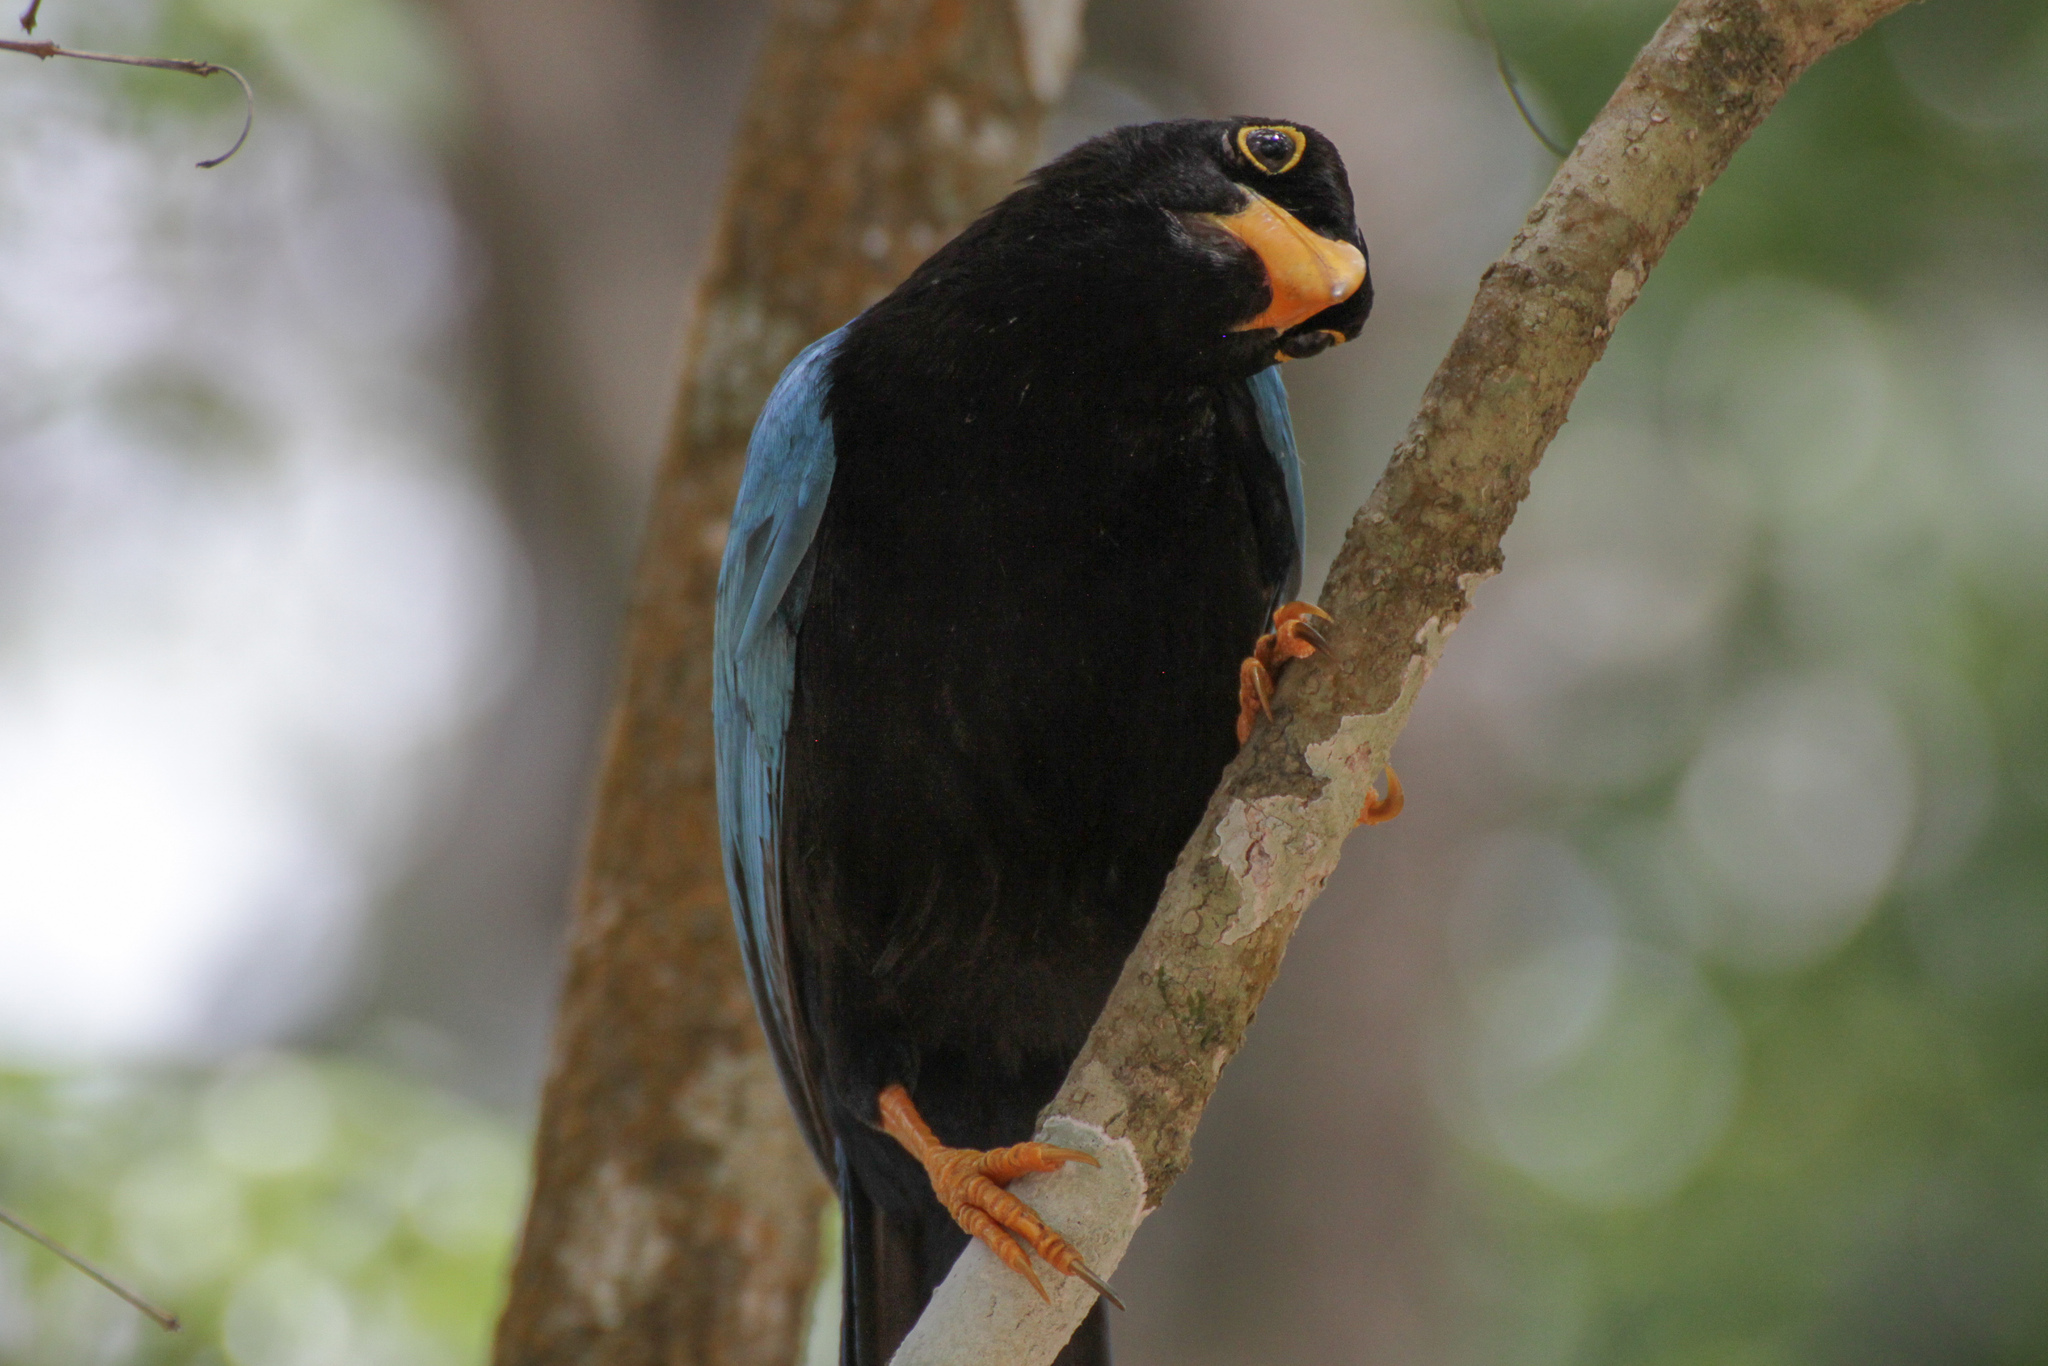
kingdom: Animalia
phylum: Chordata
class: Aves
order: Passeriformes
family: Corvidae
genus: Cyanocorax
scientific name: Cyanocorax yucatanicus
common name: Yucatan jay
